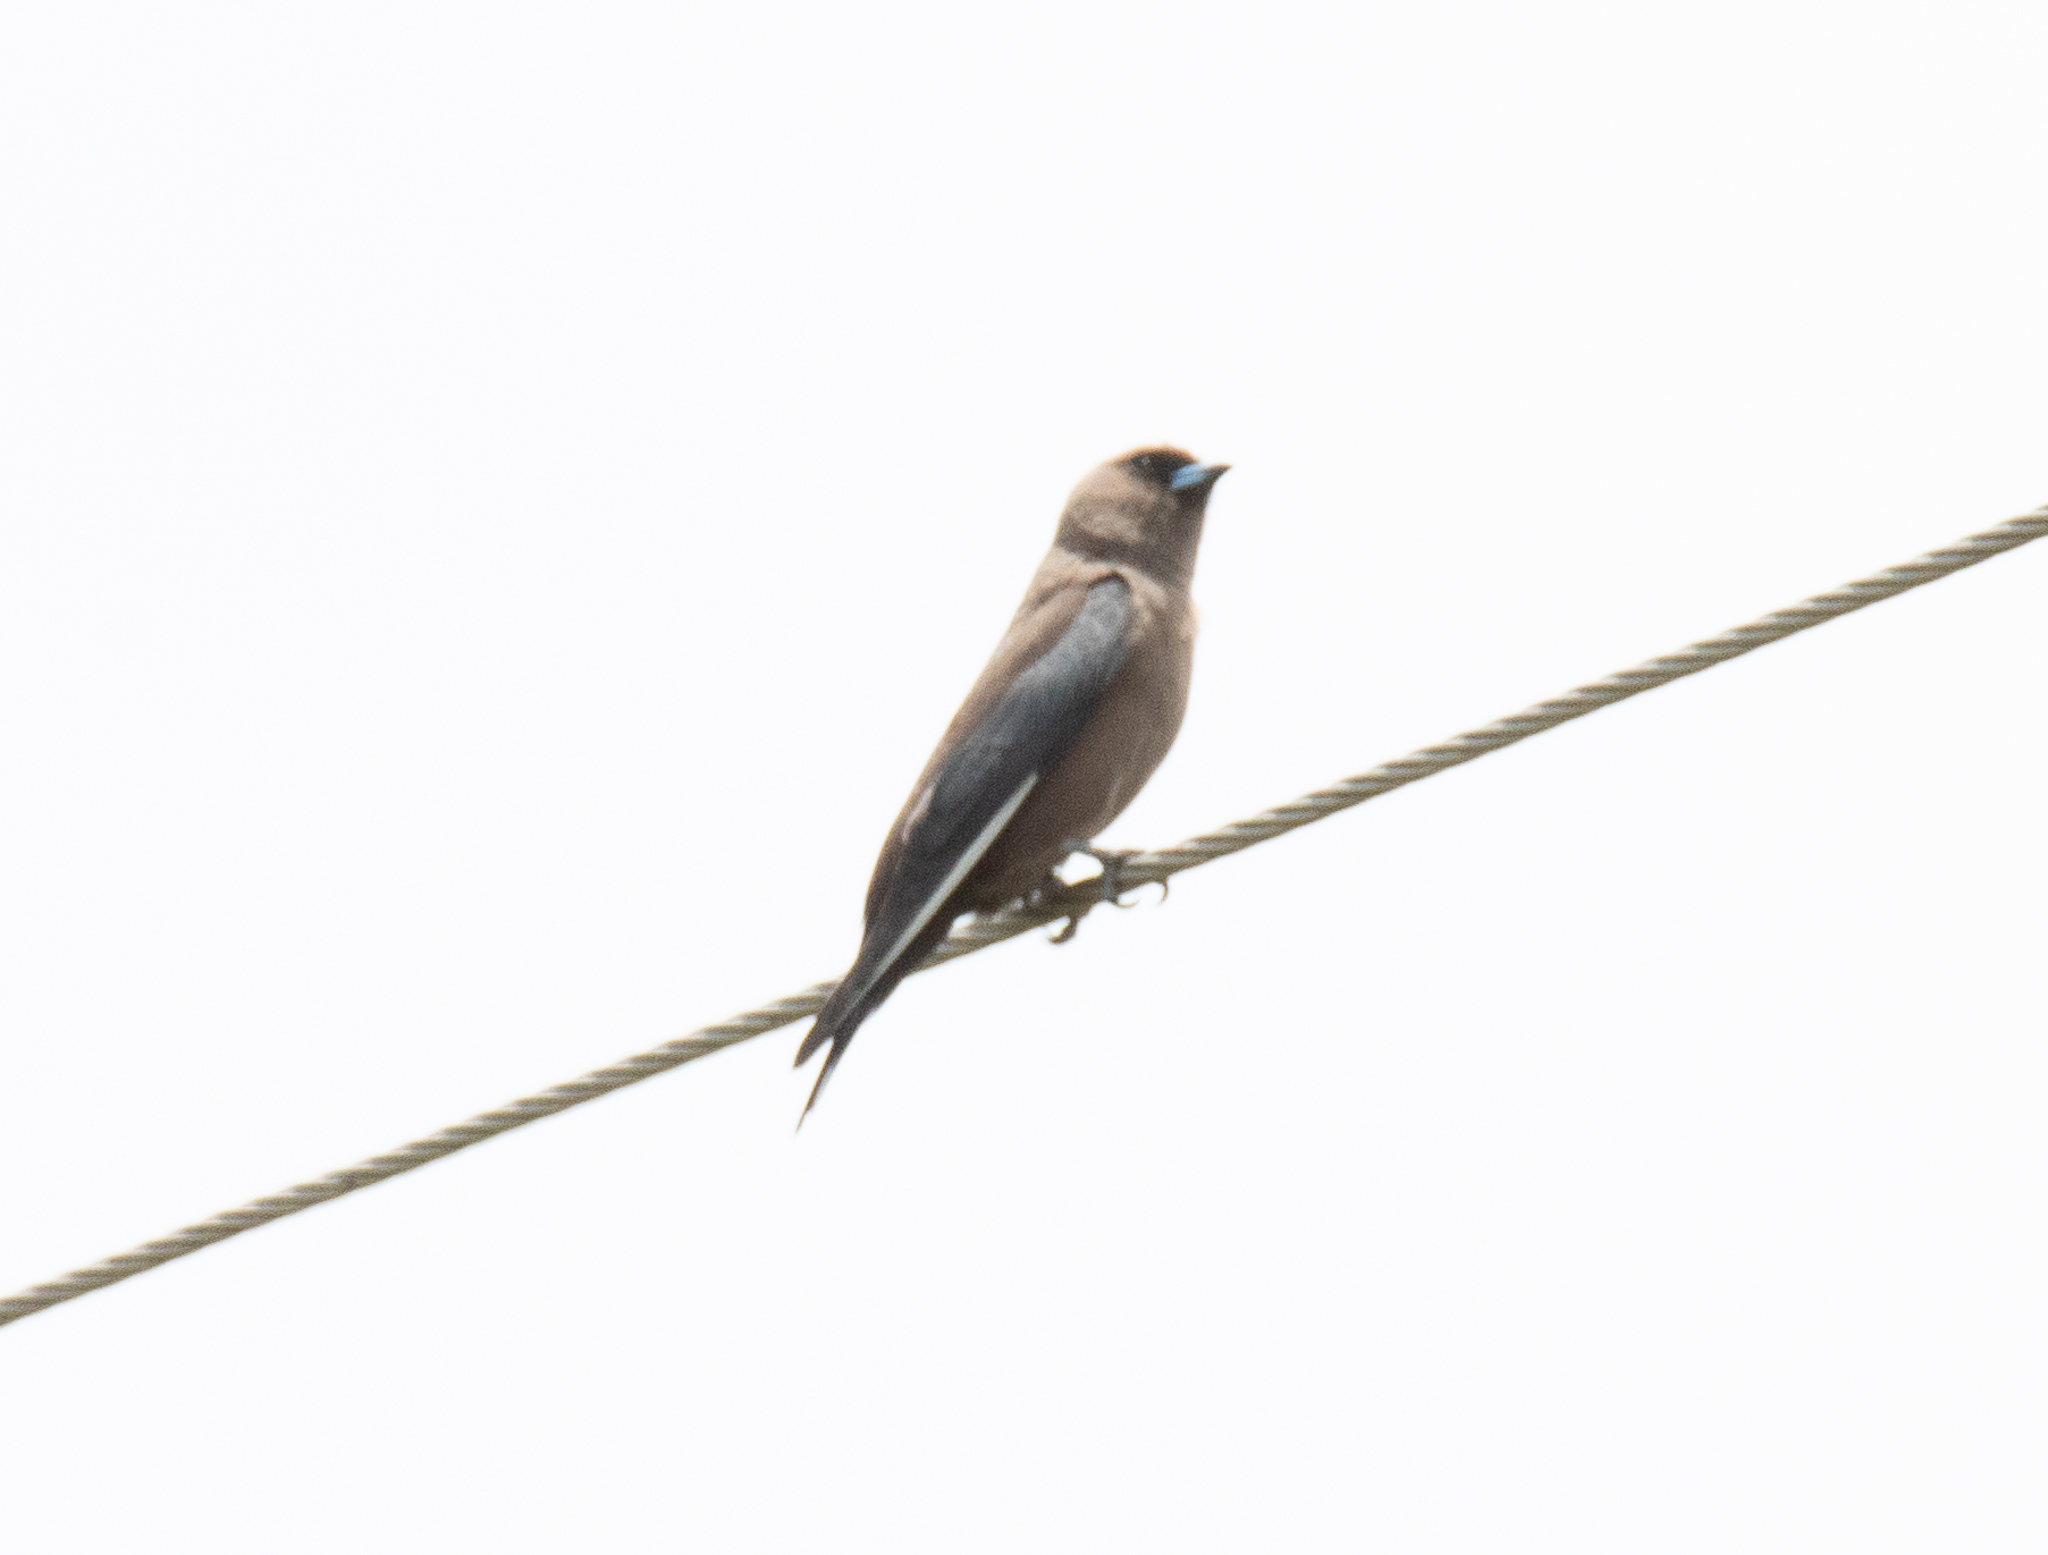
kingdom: Animalia
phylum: Chordata
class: Aves
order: Passeriformes
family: Artamidae
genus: Artamus
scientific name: Artamus cyanopterus
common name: Dusky woodswallow
